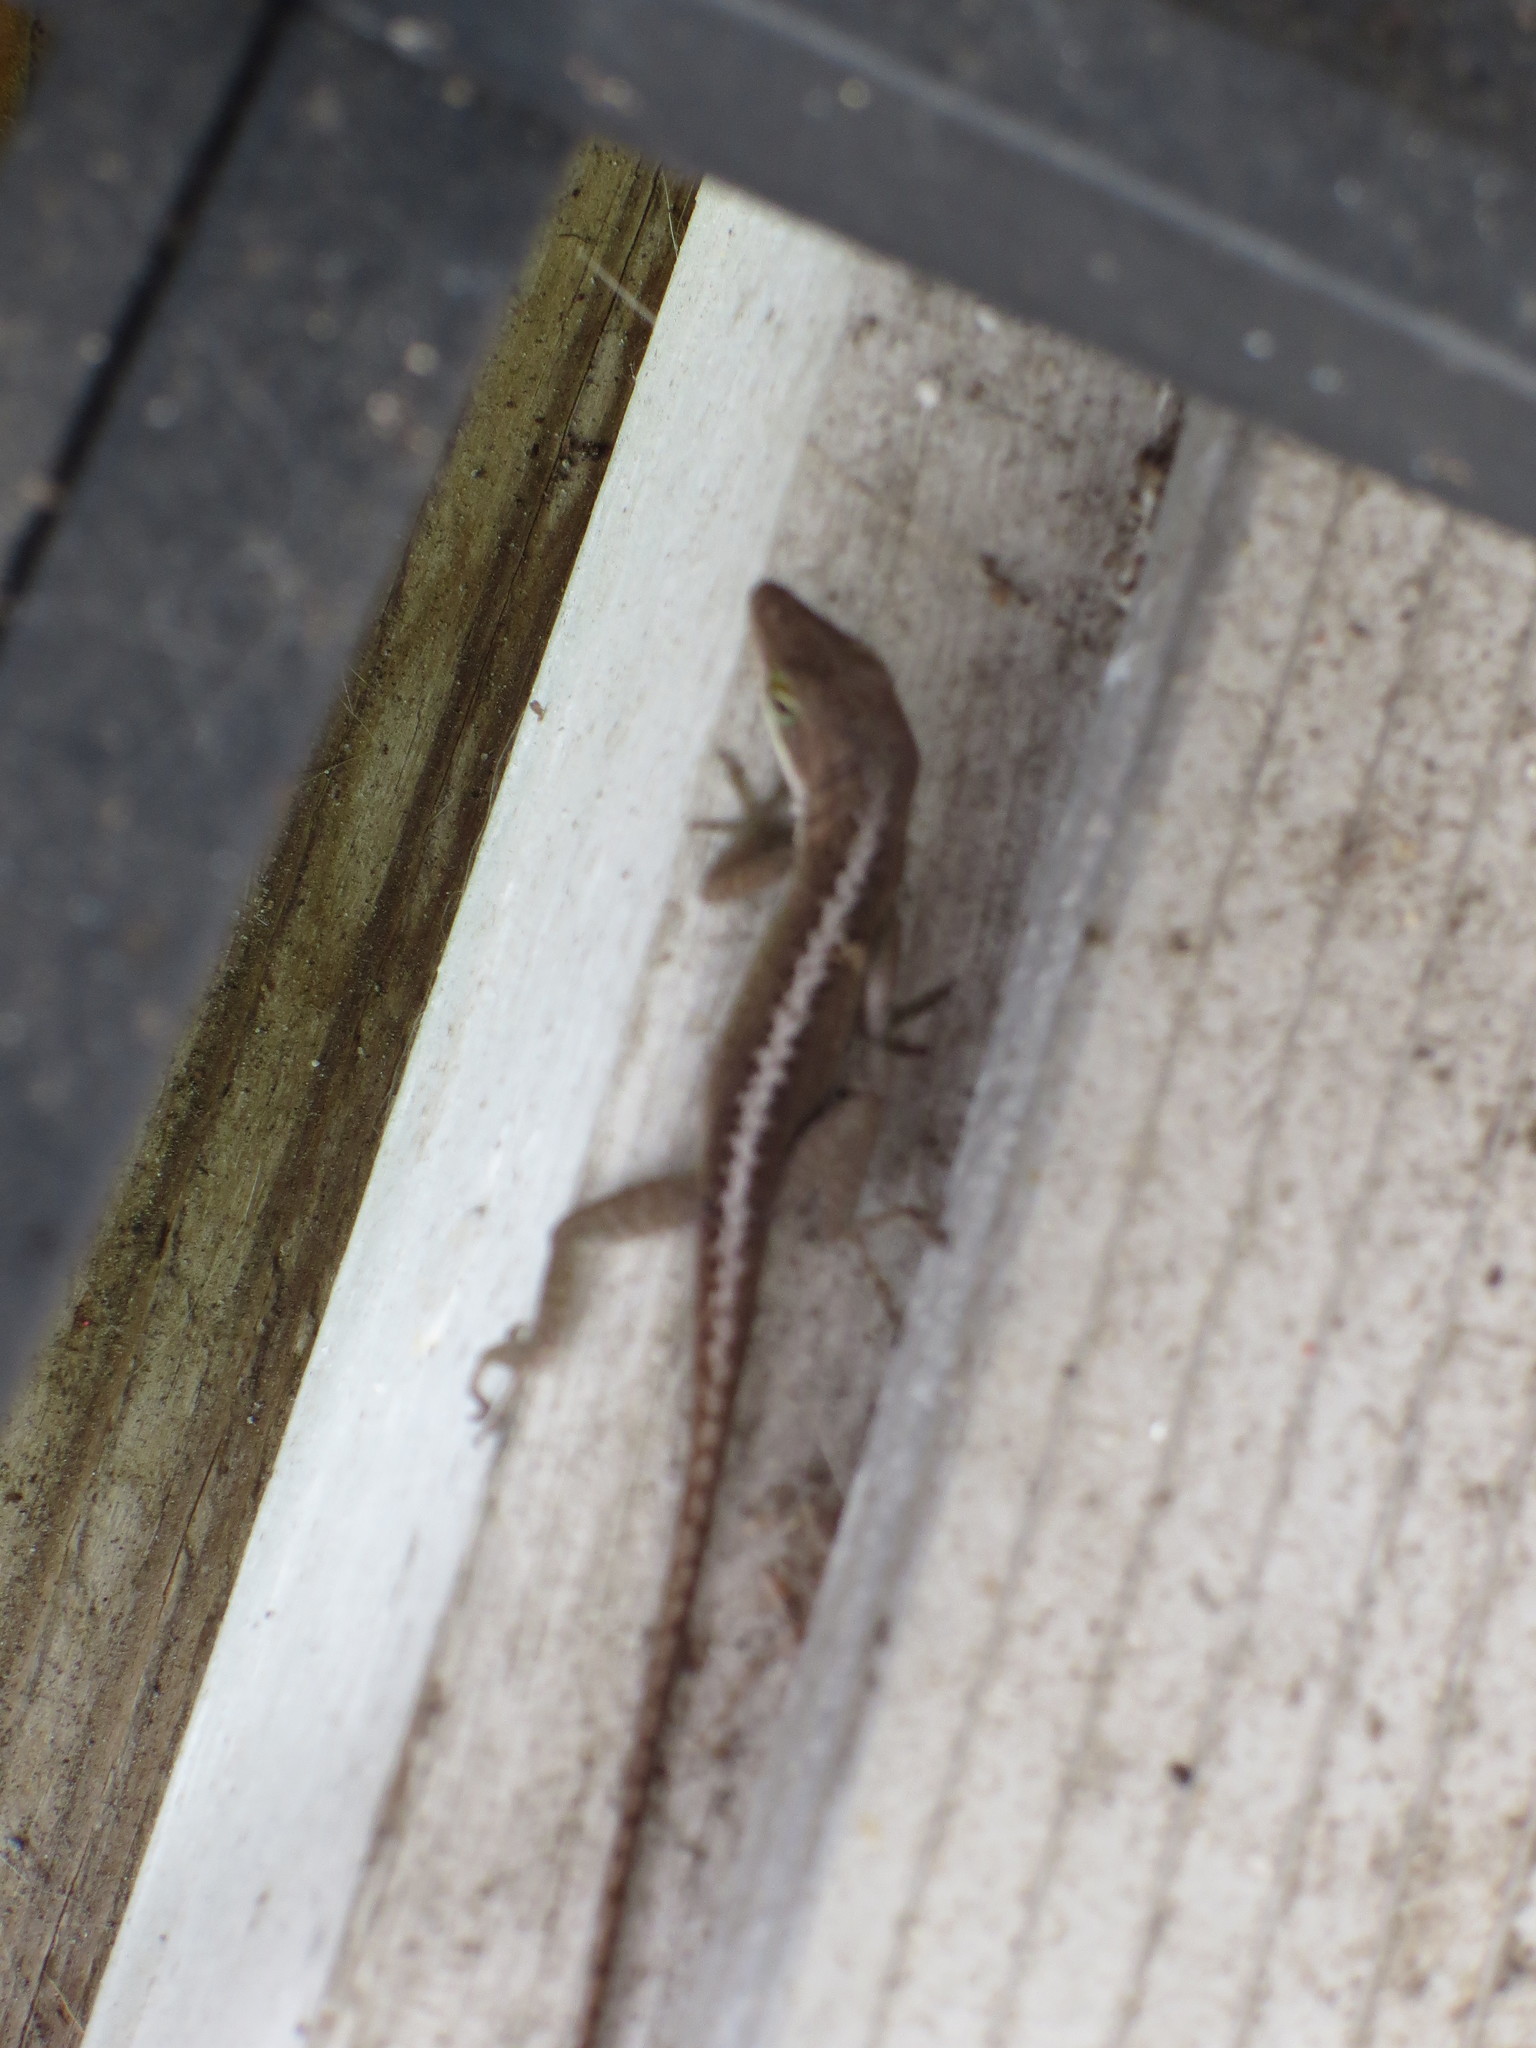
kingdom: Animalia
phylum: Chordata
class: Squamata
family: Dactyloidae
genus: Anolis
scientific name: Anolis carolinensis
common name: Green anole
